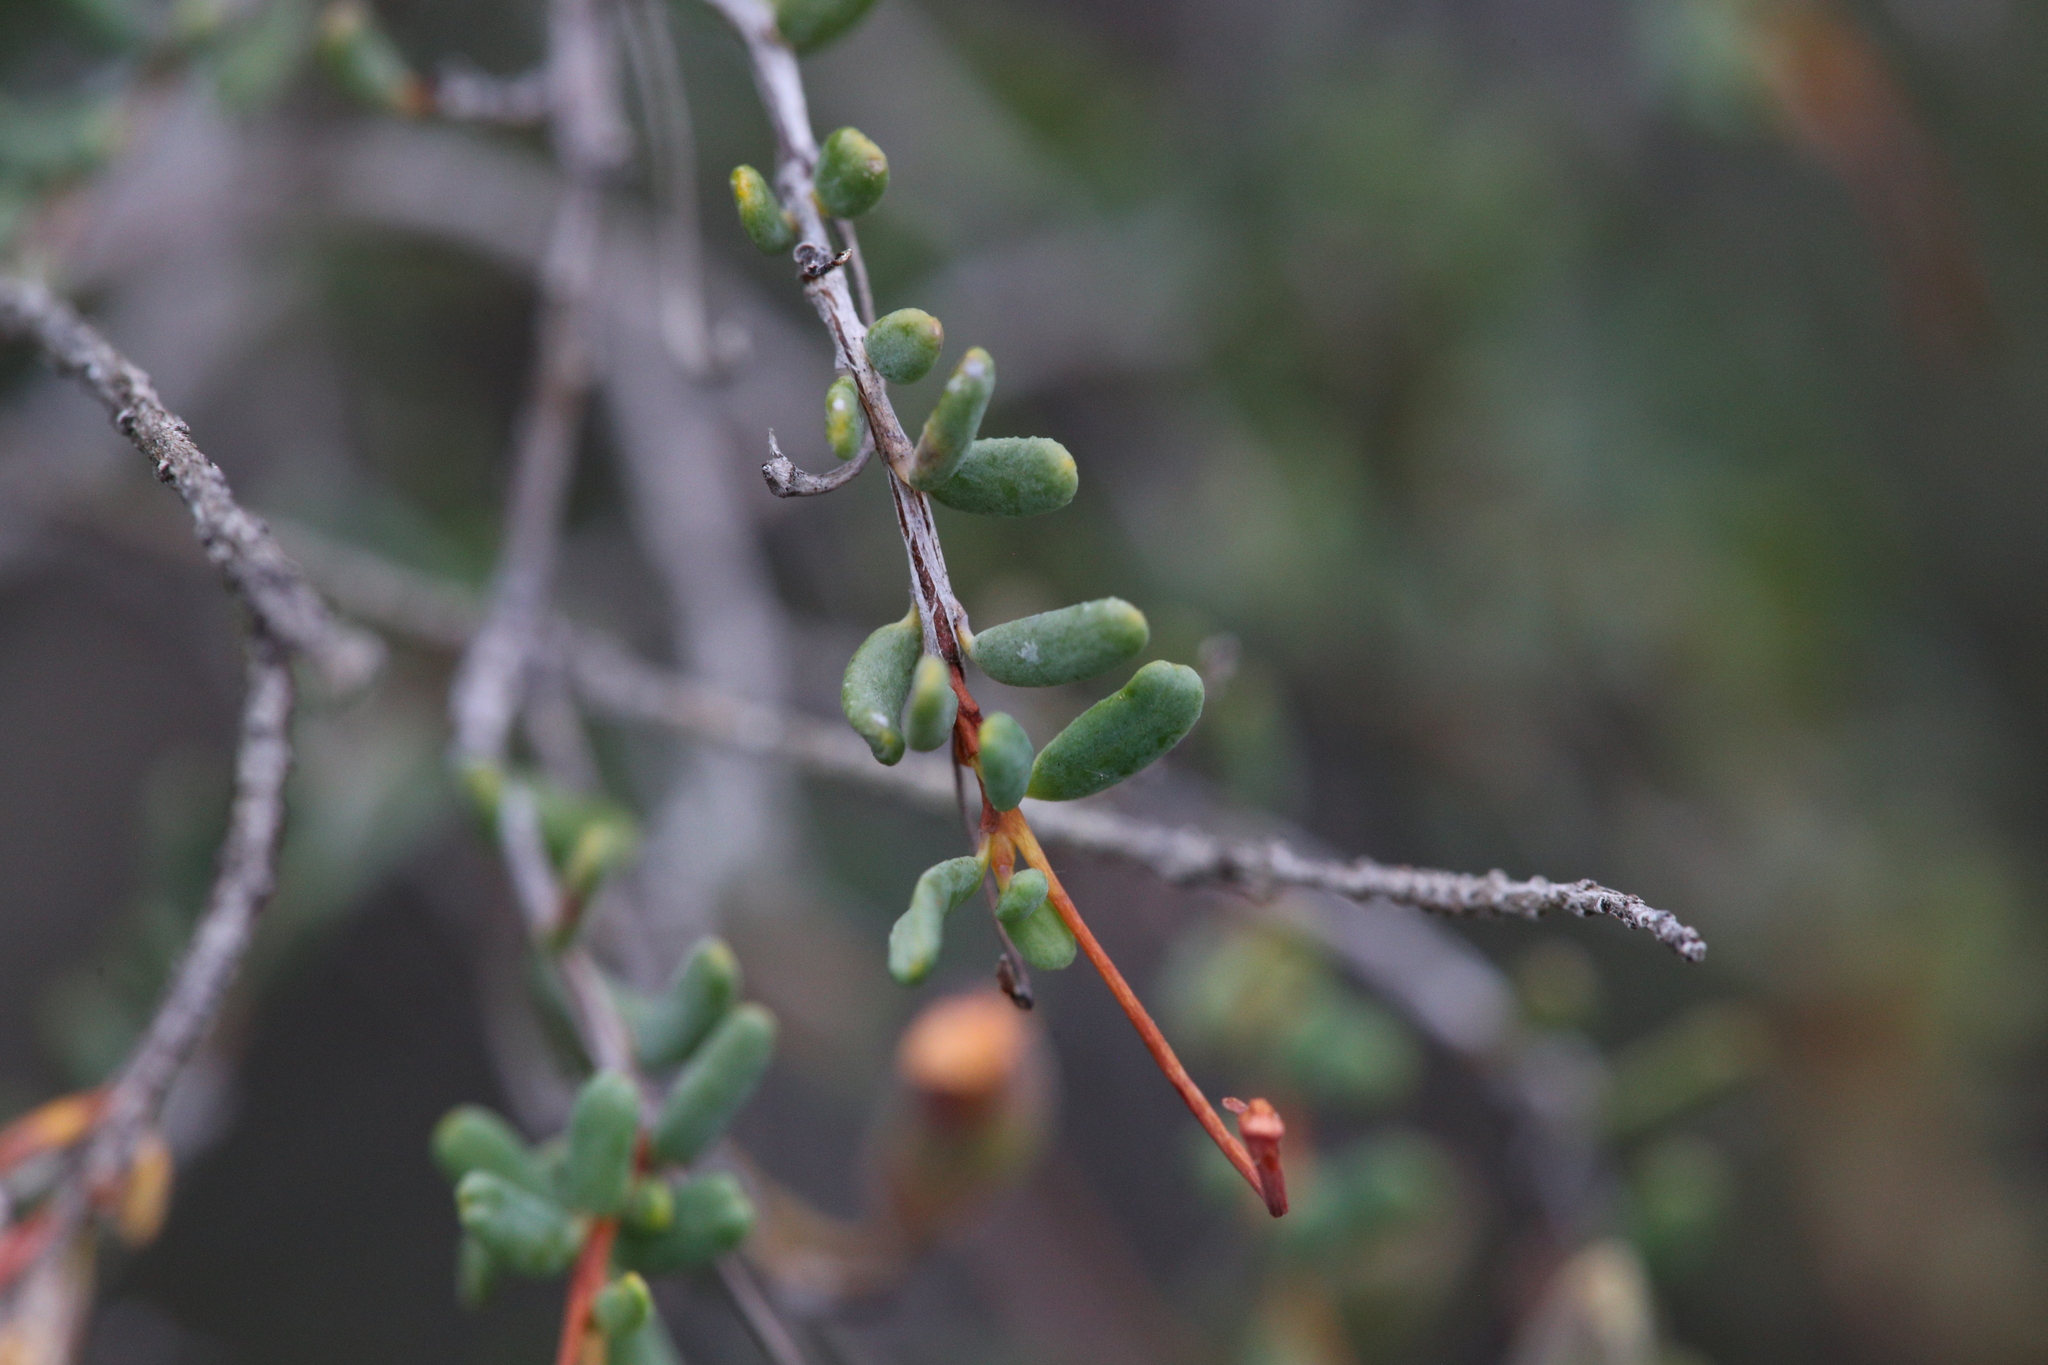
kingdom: Plantae
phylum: Tracheophyta
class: Magnoliopsida
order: Dilleniales
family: Dilleniaceae
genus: Hibbertia
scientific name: Hibbertia andrewsiana
